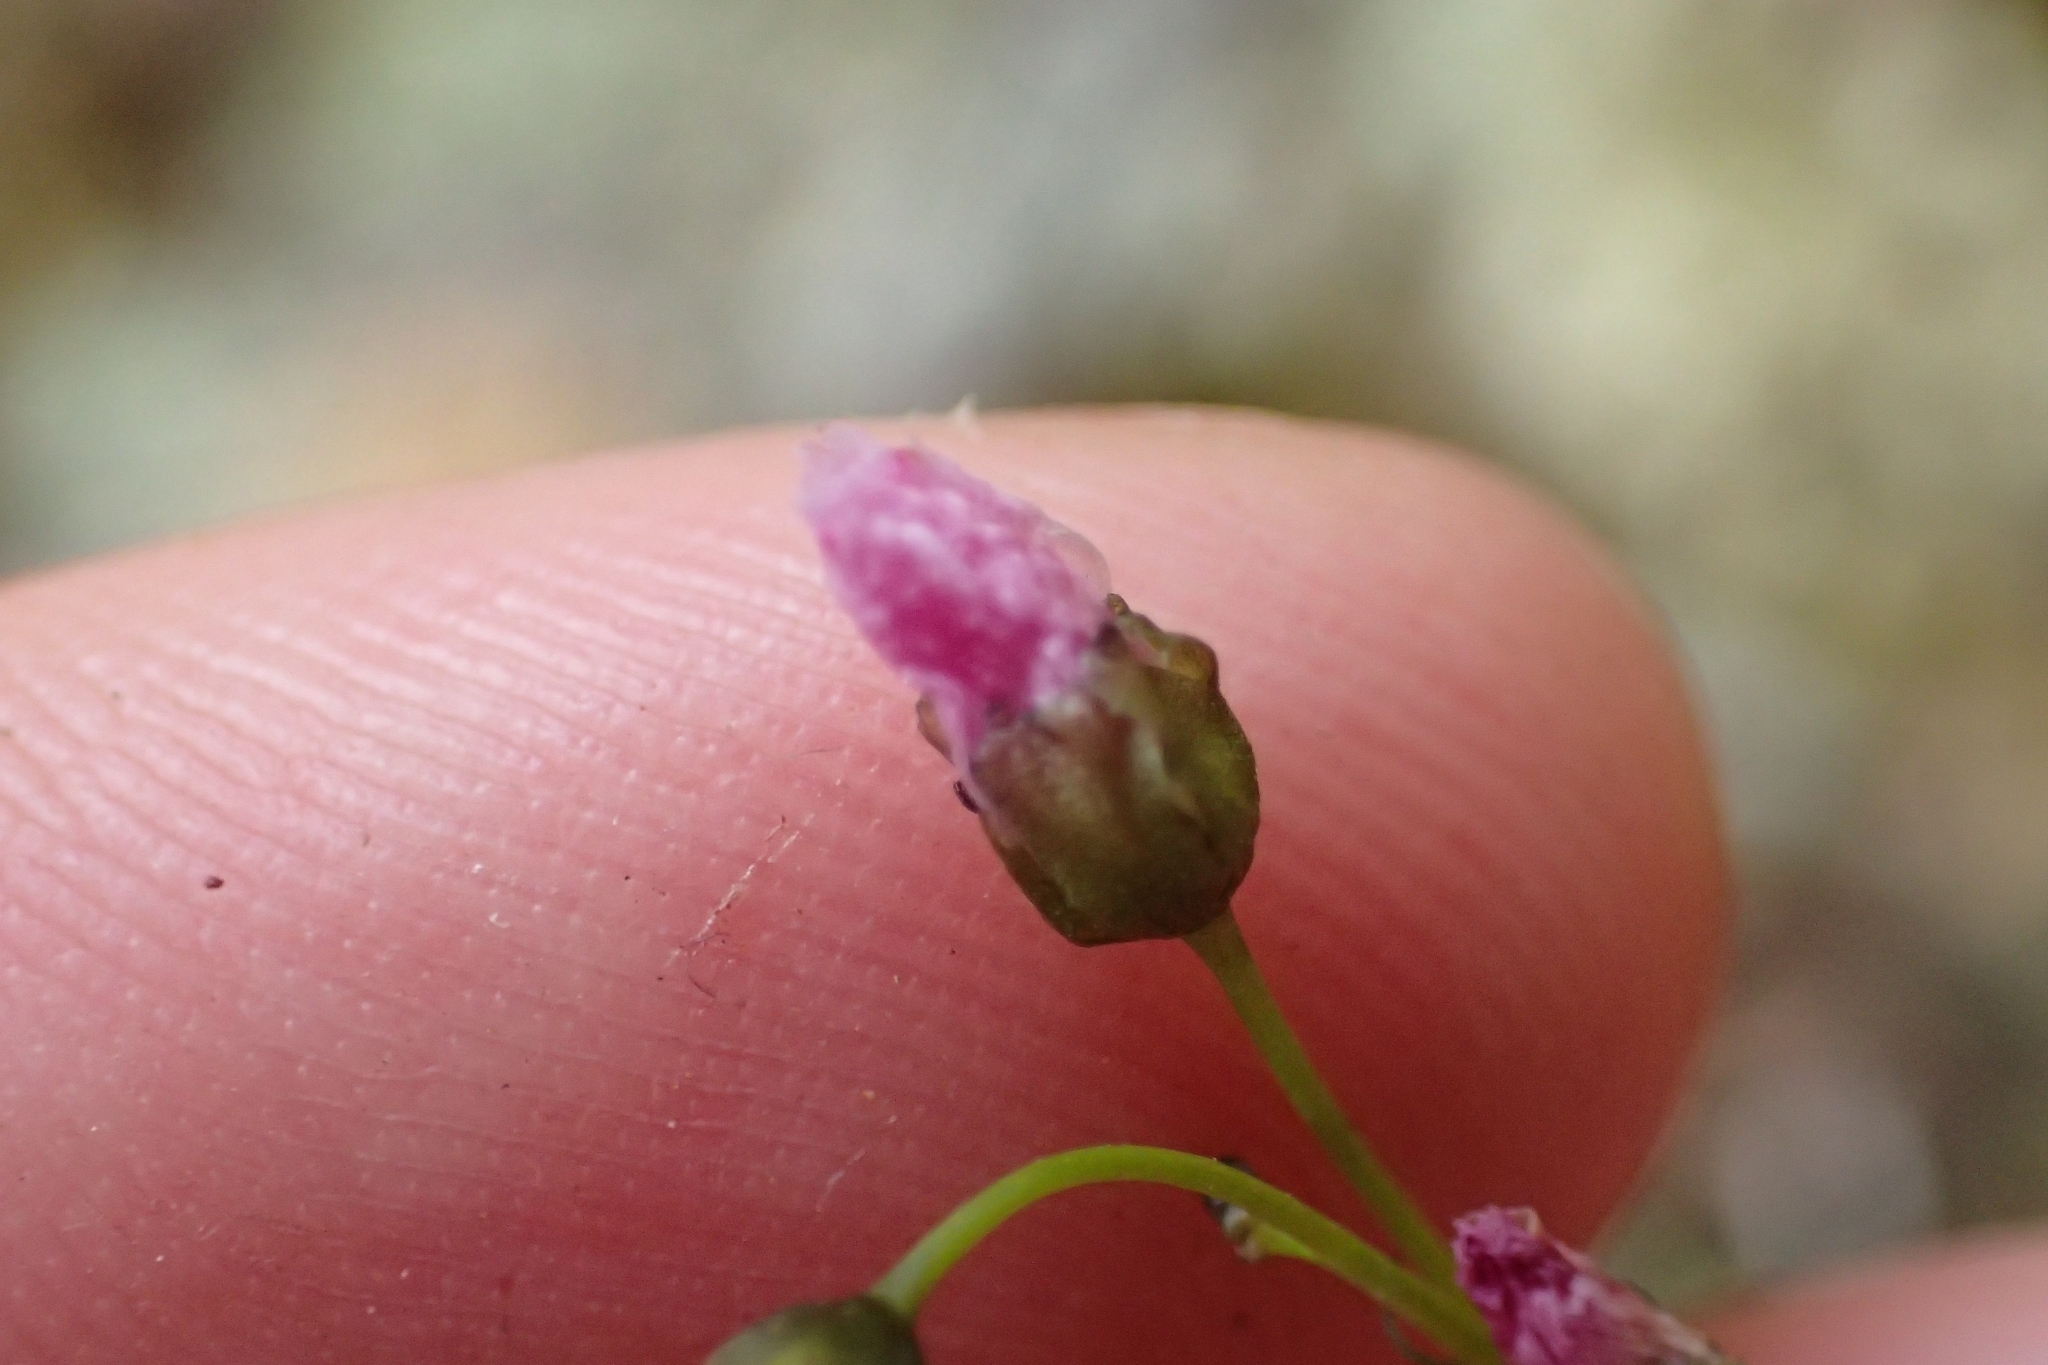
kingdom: Plantae
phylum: Tracheophyta
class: Magnoliopsida
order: Caryophyllales
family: Droseraceae
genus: Drosera
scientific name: Drosera peltata
